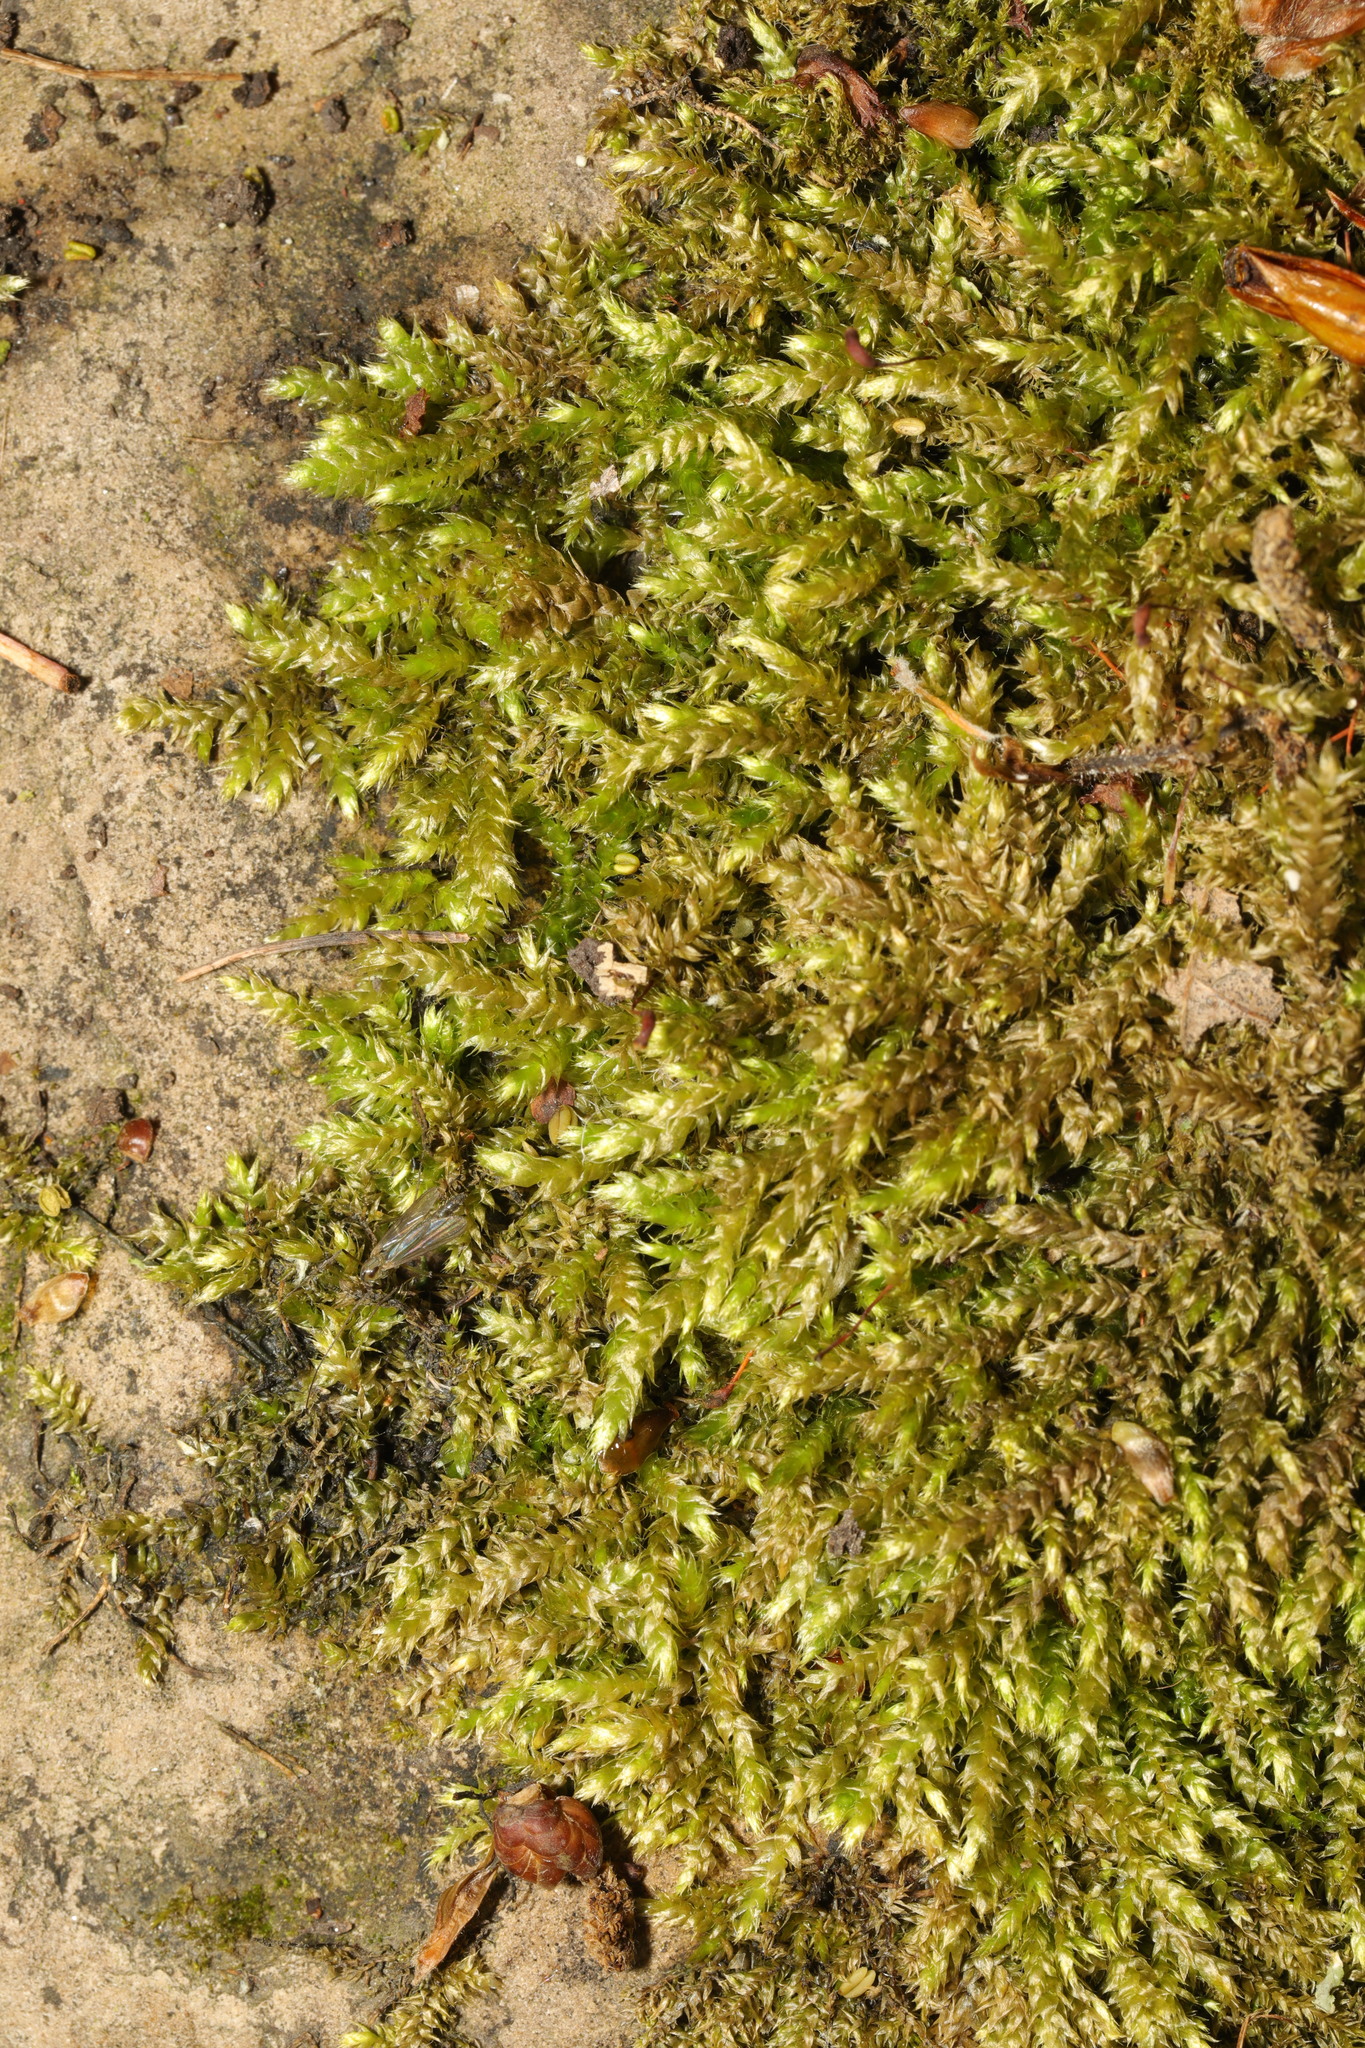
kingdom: Plantae
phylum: Bryophyta
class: Bryopsida
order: Hypnales
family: Brachytheciaceae
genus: Brachythecium
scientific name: Brachythecium rutabulum
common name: Rough-stalked feather-moss
